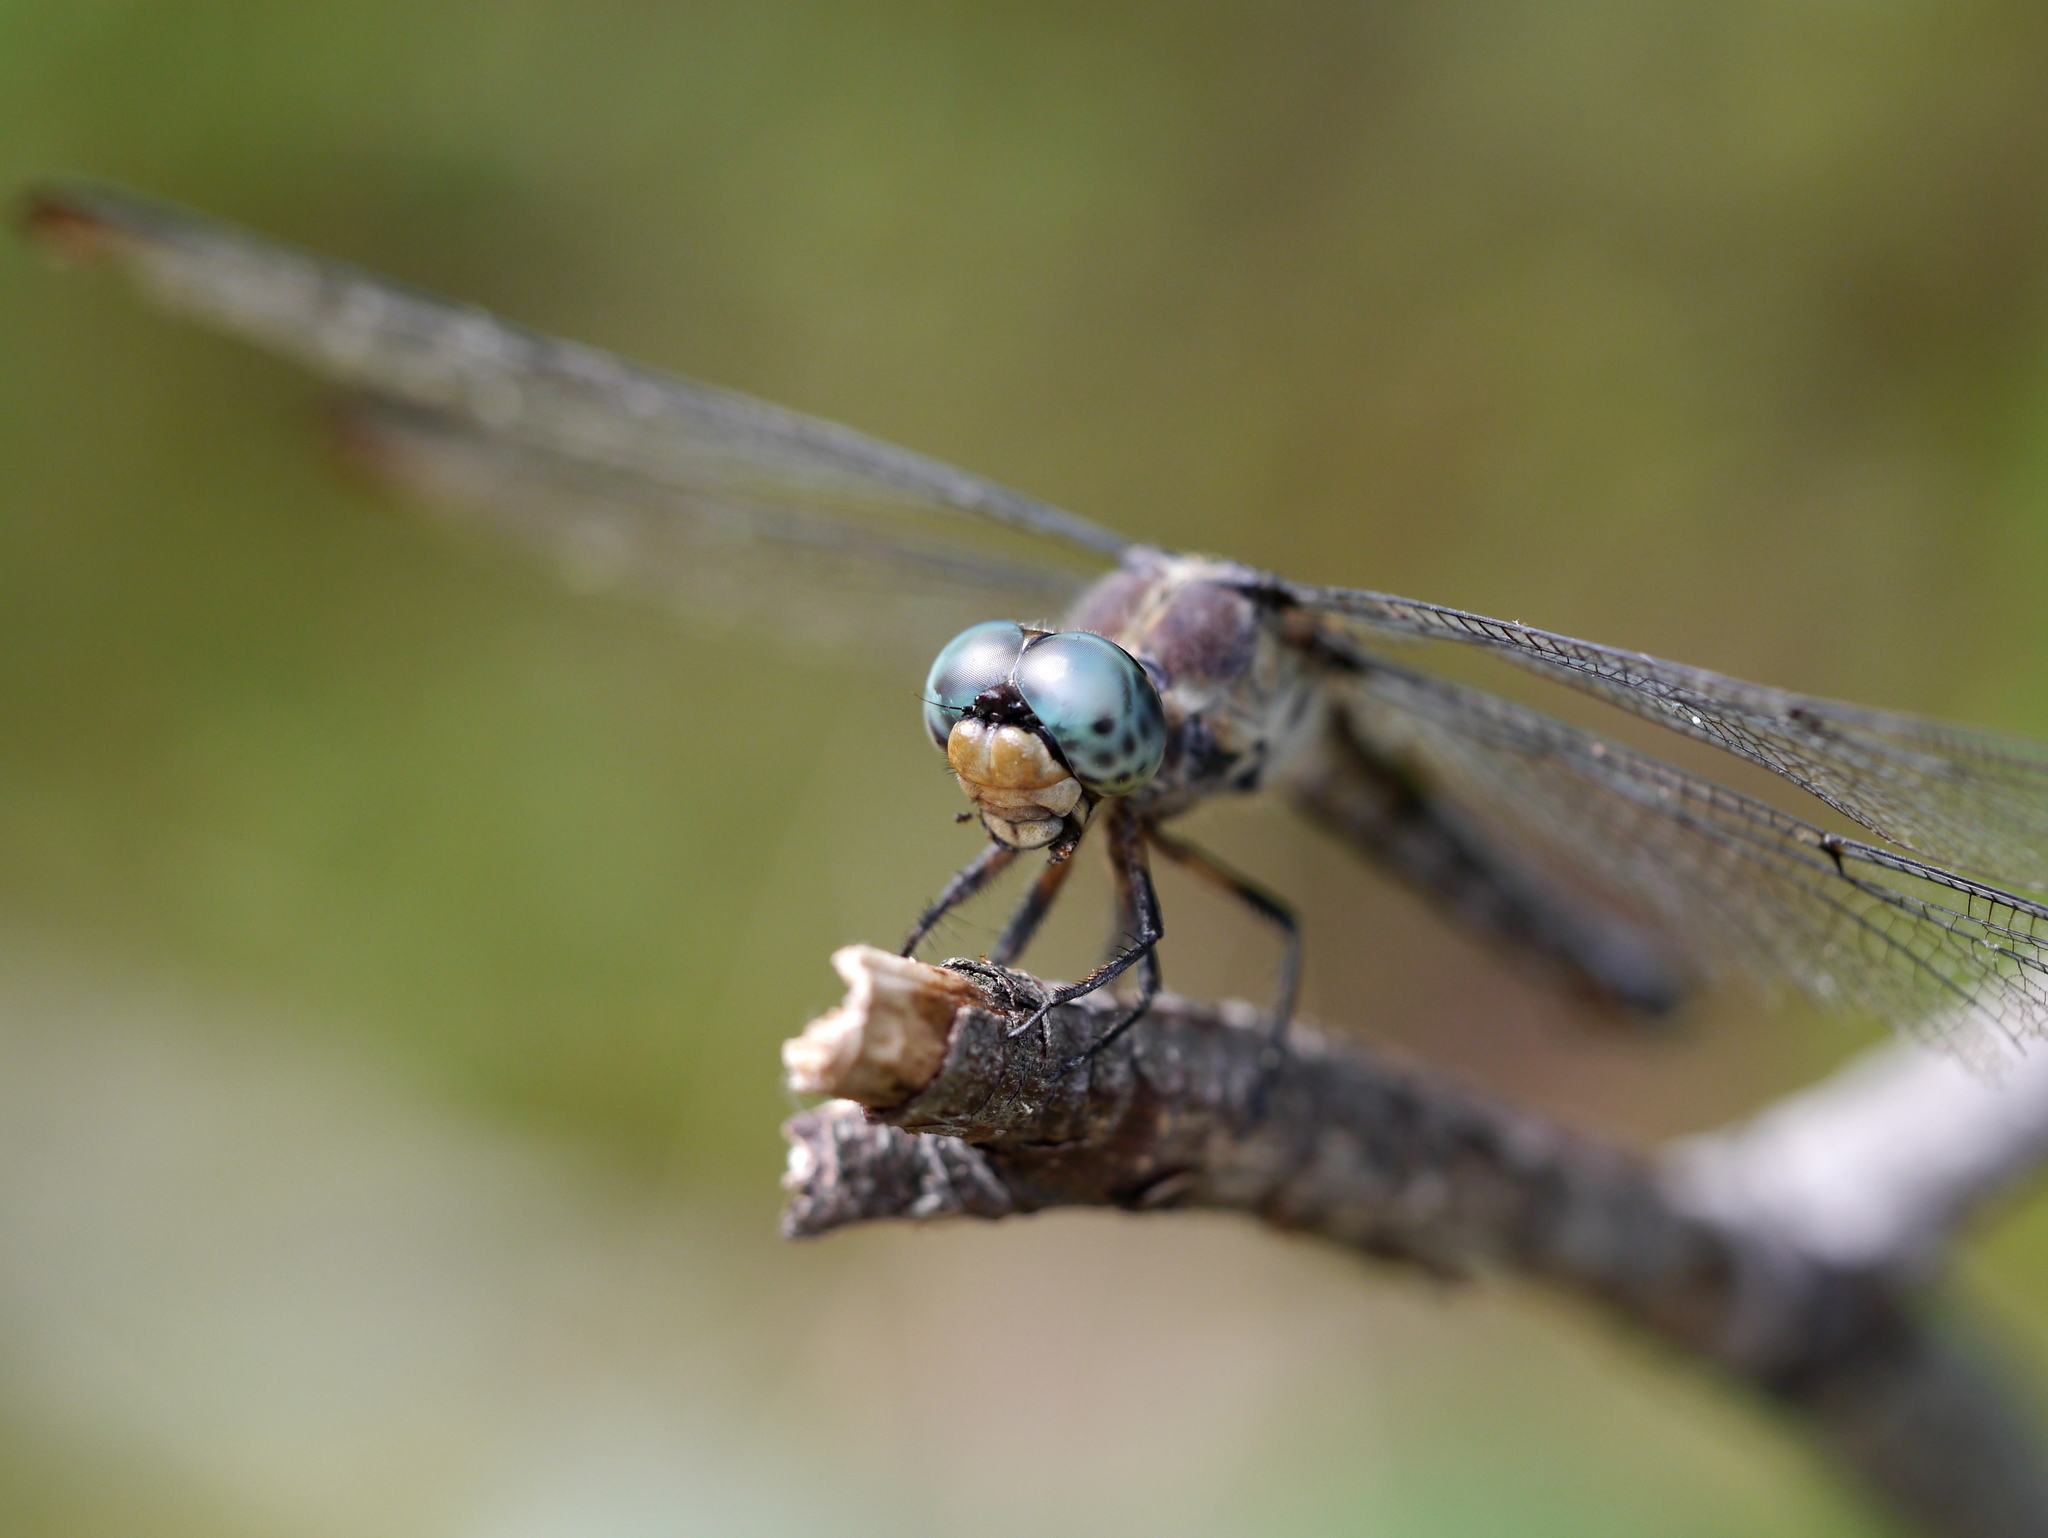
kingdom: Animalia
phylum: Arthropoda
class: Insecta
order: Odonata
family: Libellulidae
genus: Libellula
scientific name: Libellula vibrans
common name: Great blue skimmer
